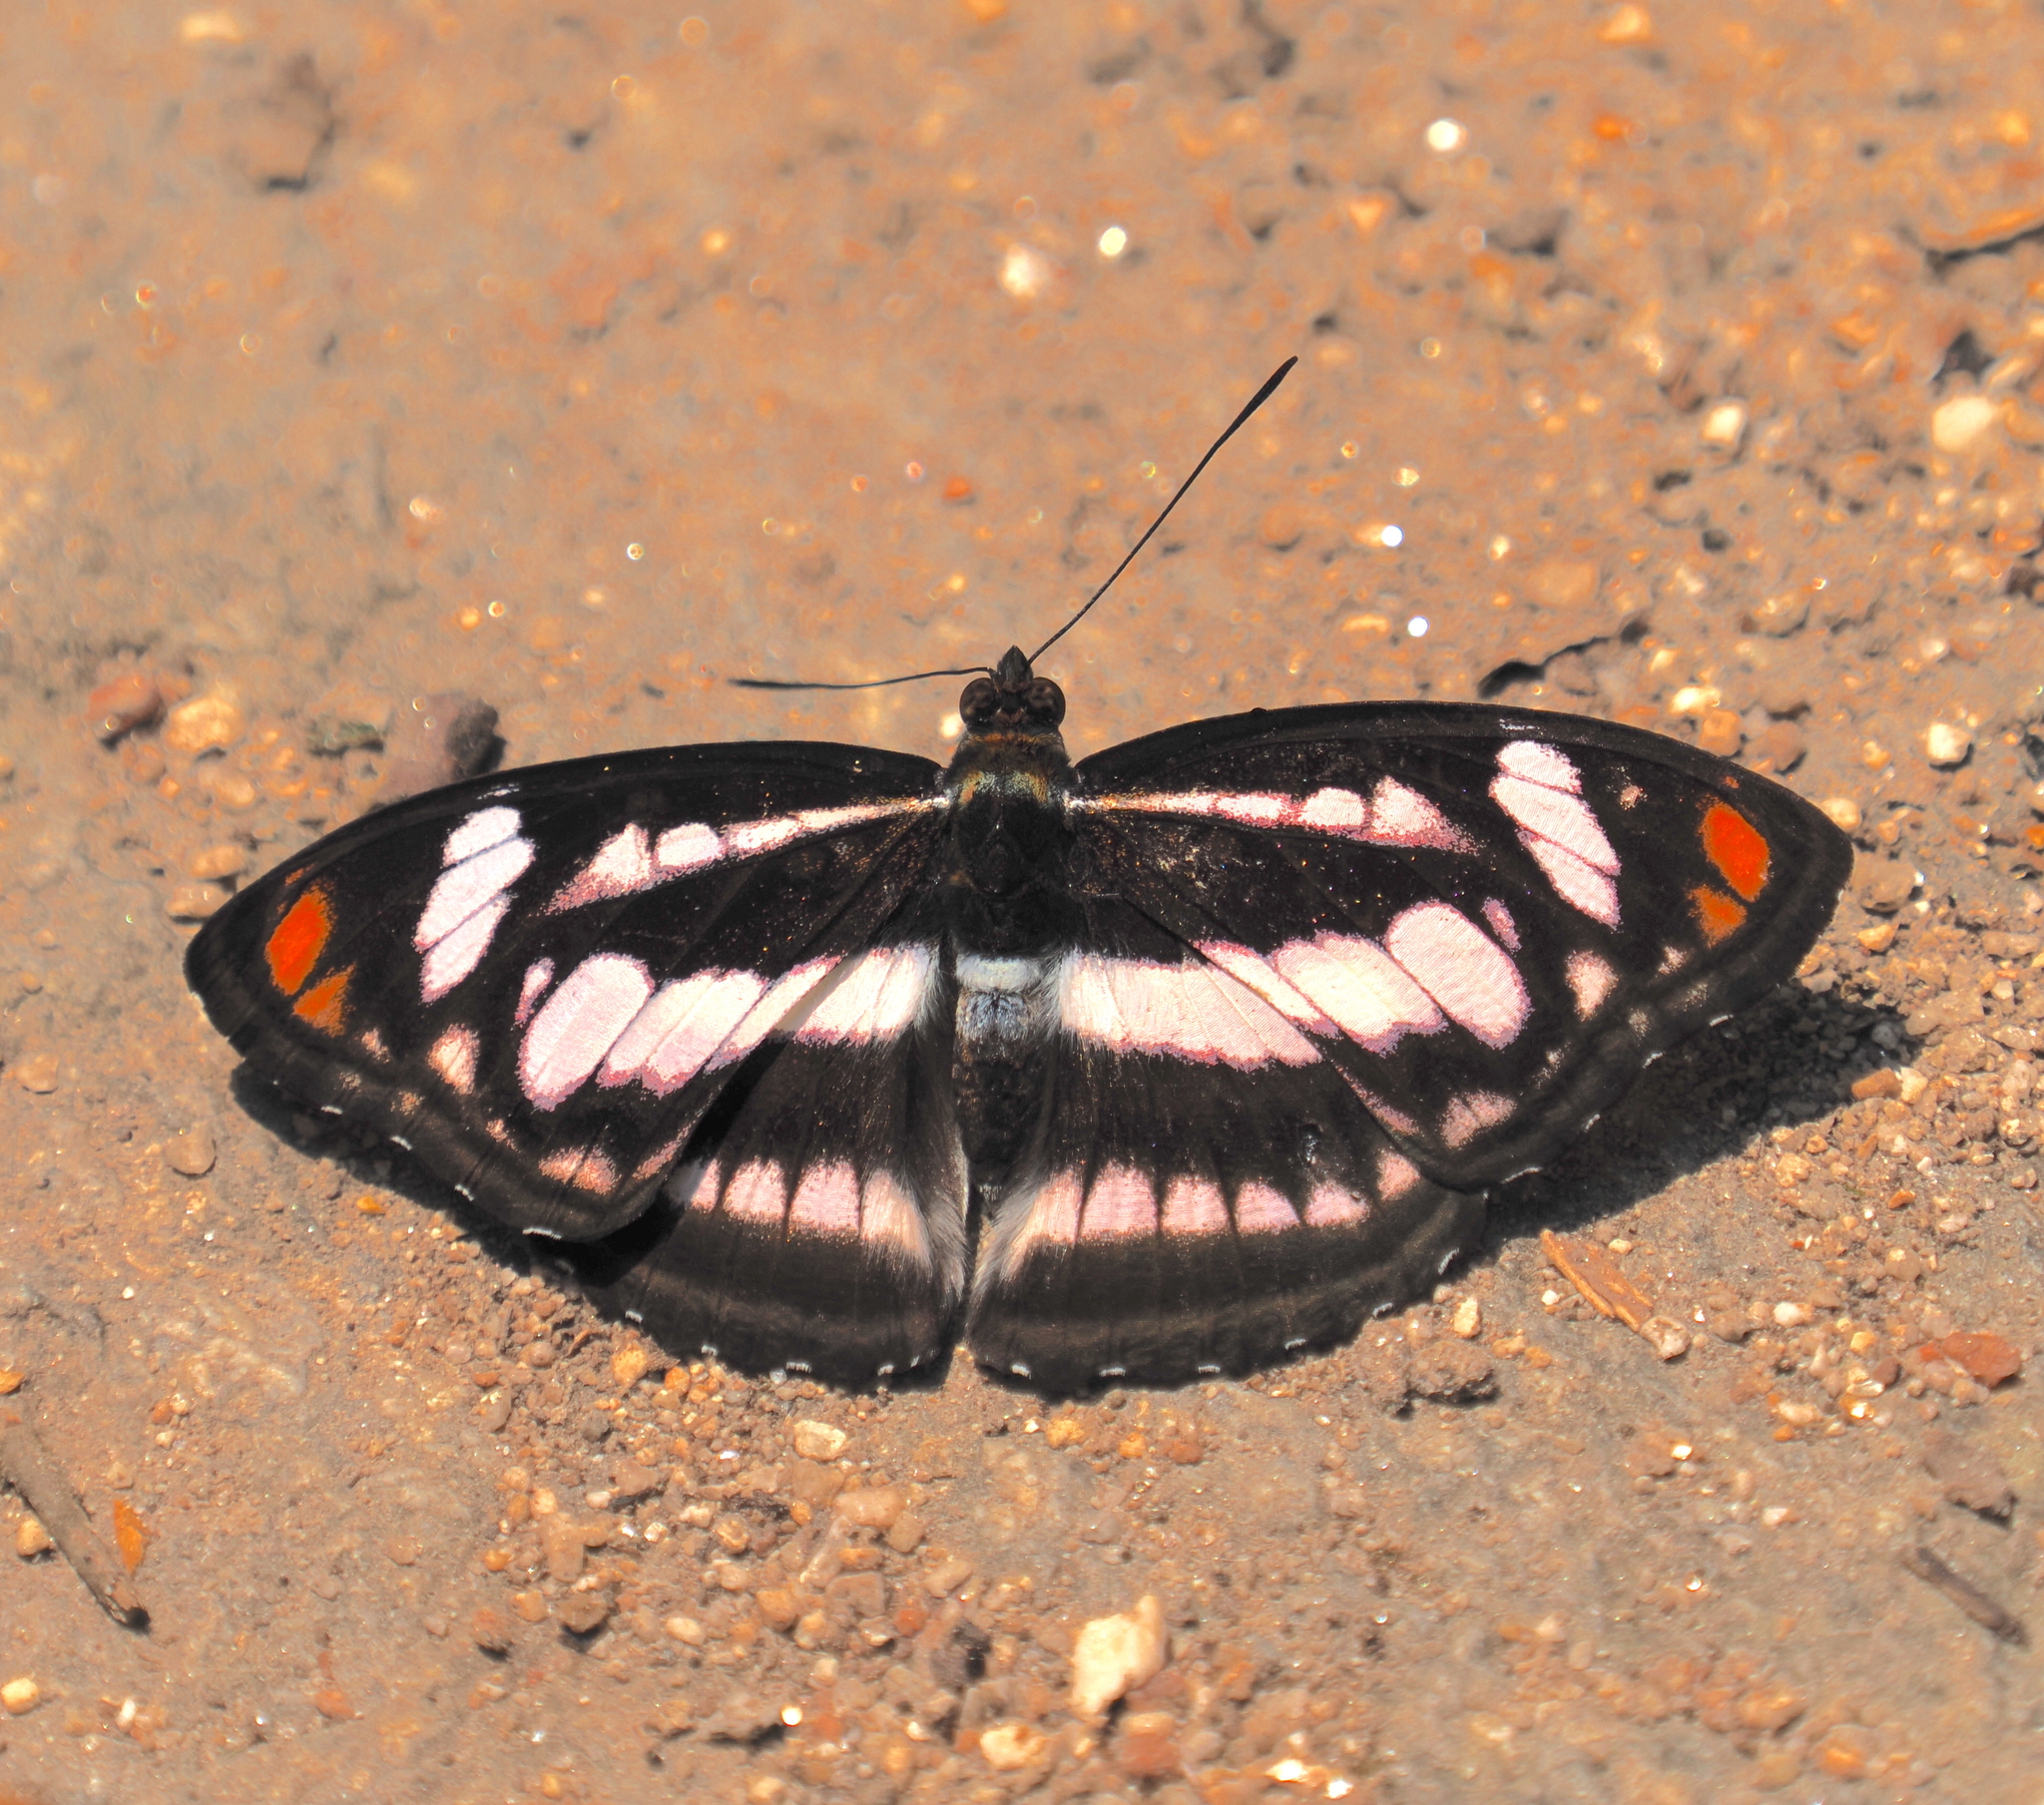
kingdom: Animalia
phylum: Arthropoda
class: Insecta
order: Lepidoptera
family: Nymphalidae
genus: Parathyma
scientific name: Parathyma nefte
